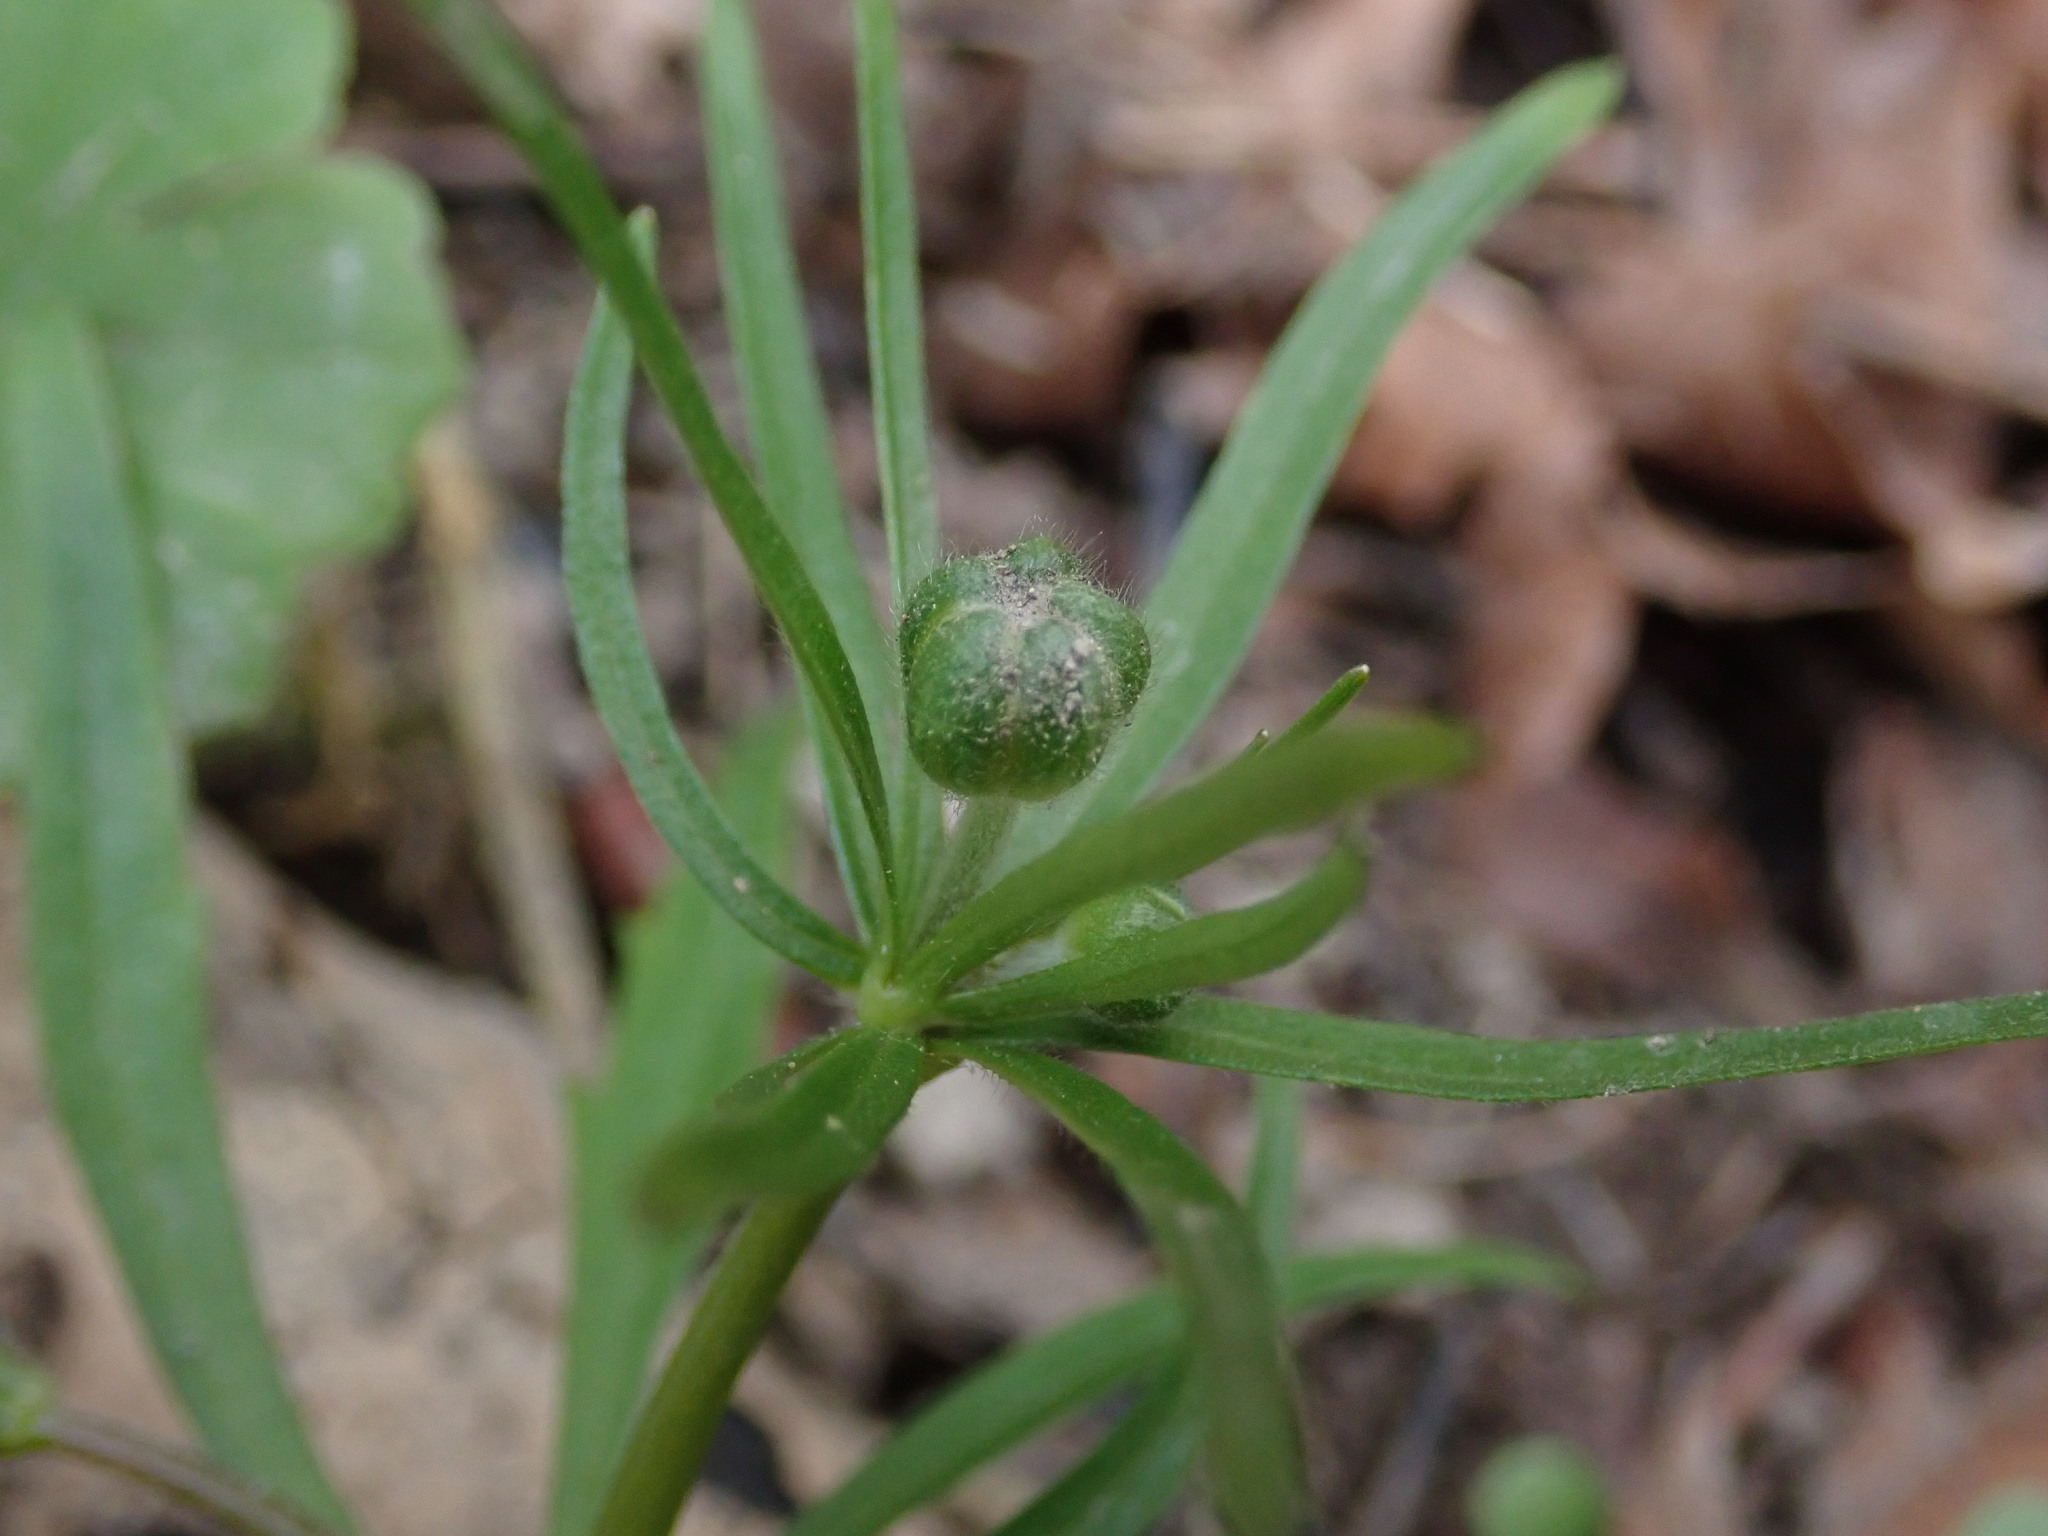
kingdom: Plantae
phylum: Tracheophyta
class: Magnoliopsida
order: Ranunculales
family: Ranunculaceae
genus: Ranunculus
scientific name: Ranunculus auricomus
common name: Goldilocks buttercup
